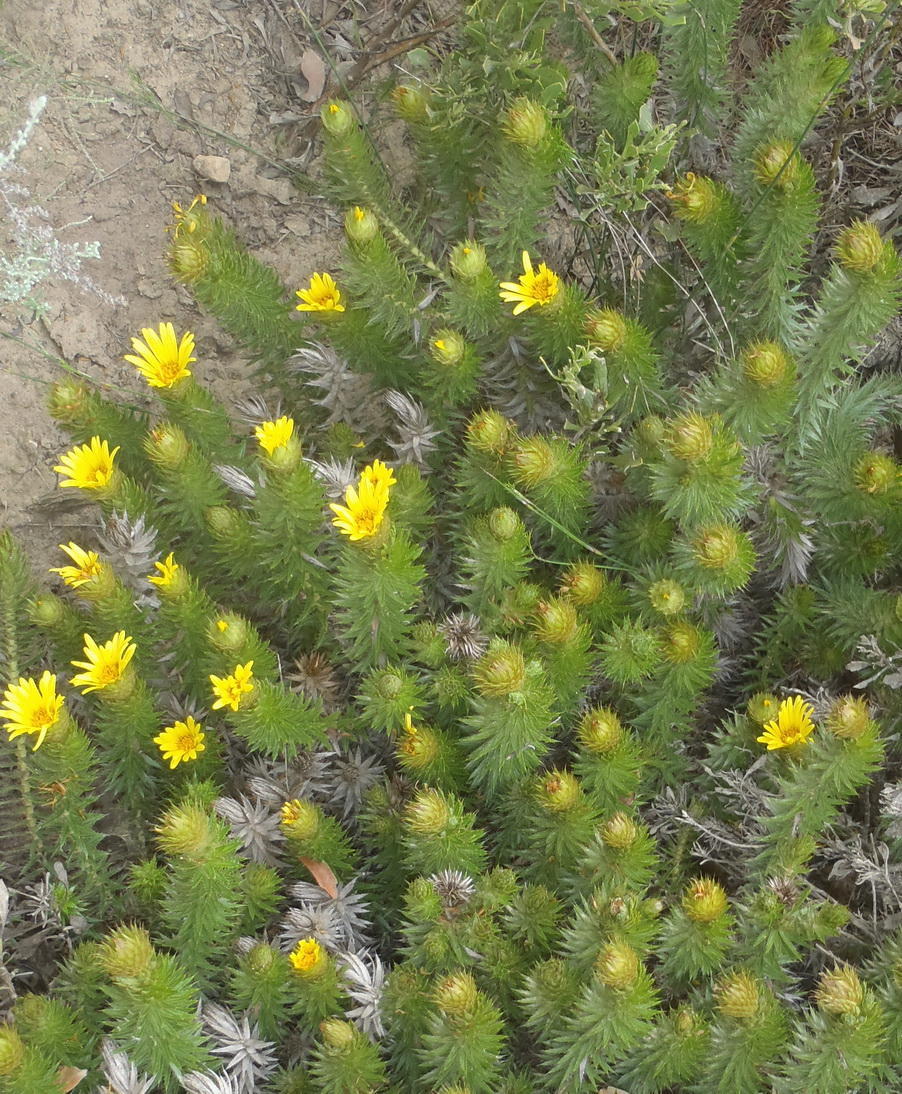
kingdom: Plantae
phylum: Tracheophyta
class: Magnoliopsida
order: Asterales
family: Asteraceae
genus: Cullumia
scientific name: Cullumia carlinoides
